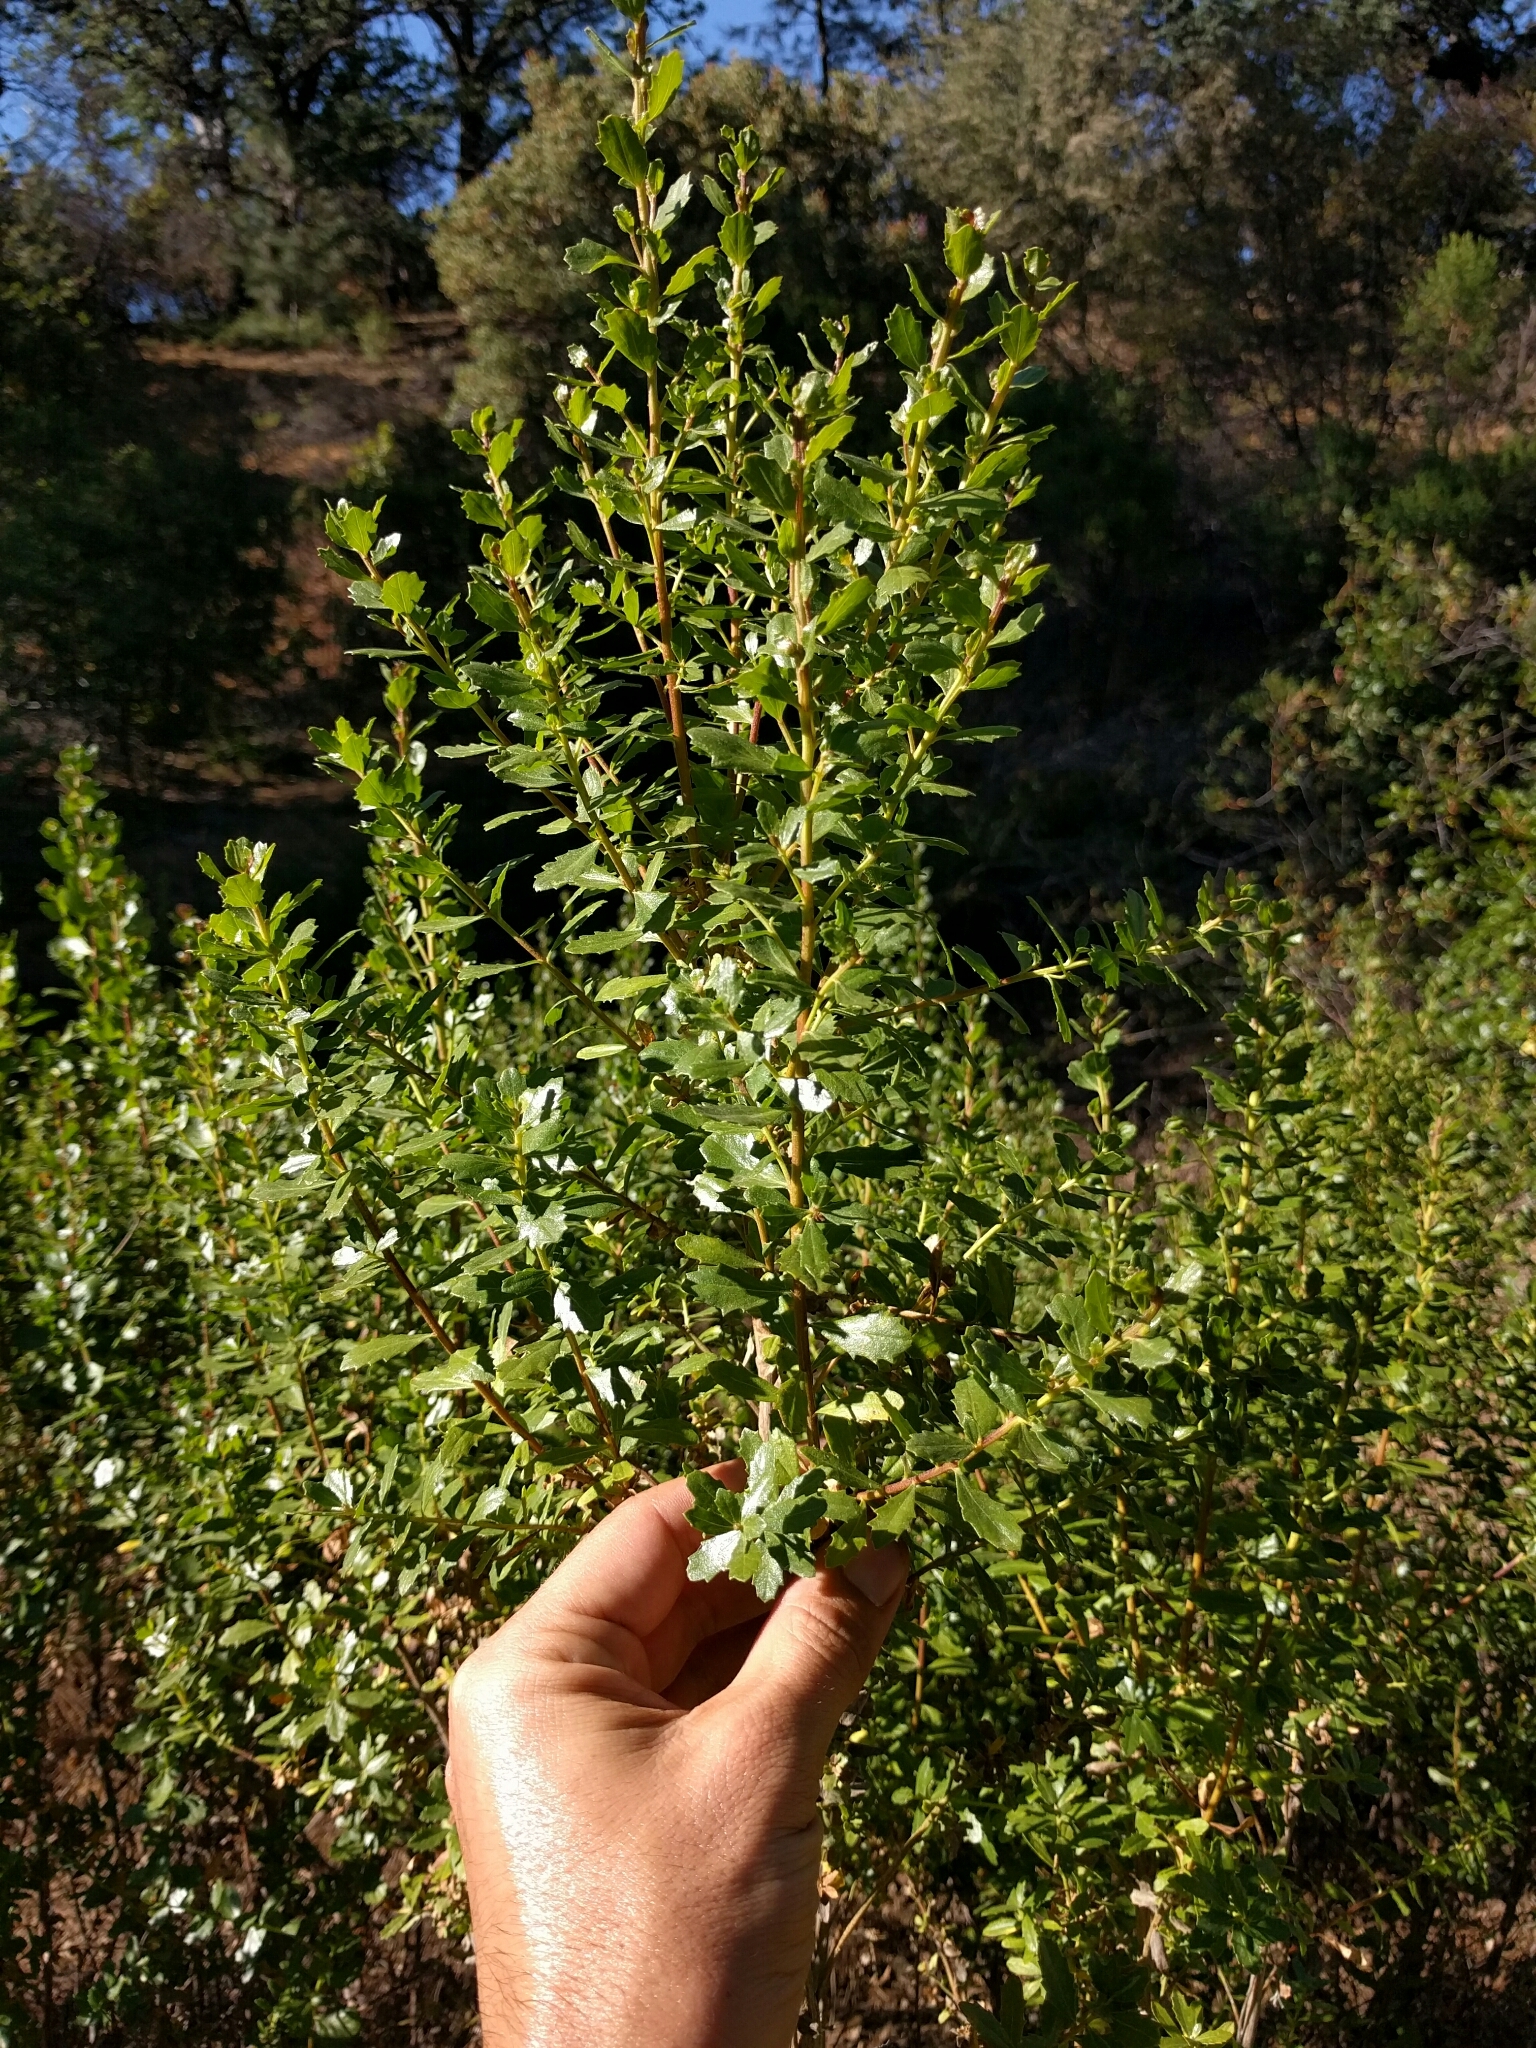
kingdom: Plantae
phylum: Tracheophyta
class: Magnoliopsida
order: Asterales
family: Asteraceae
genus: Baccharis
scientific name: Baccharis pilularis
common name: Coyotebrush
